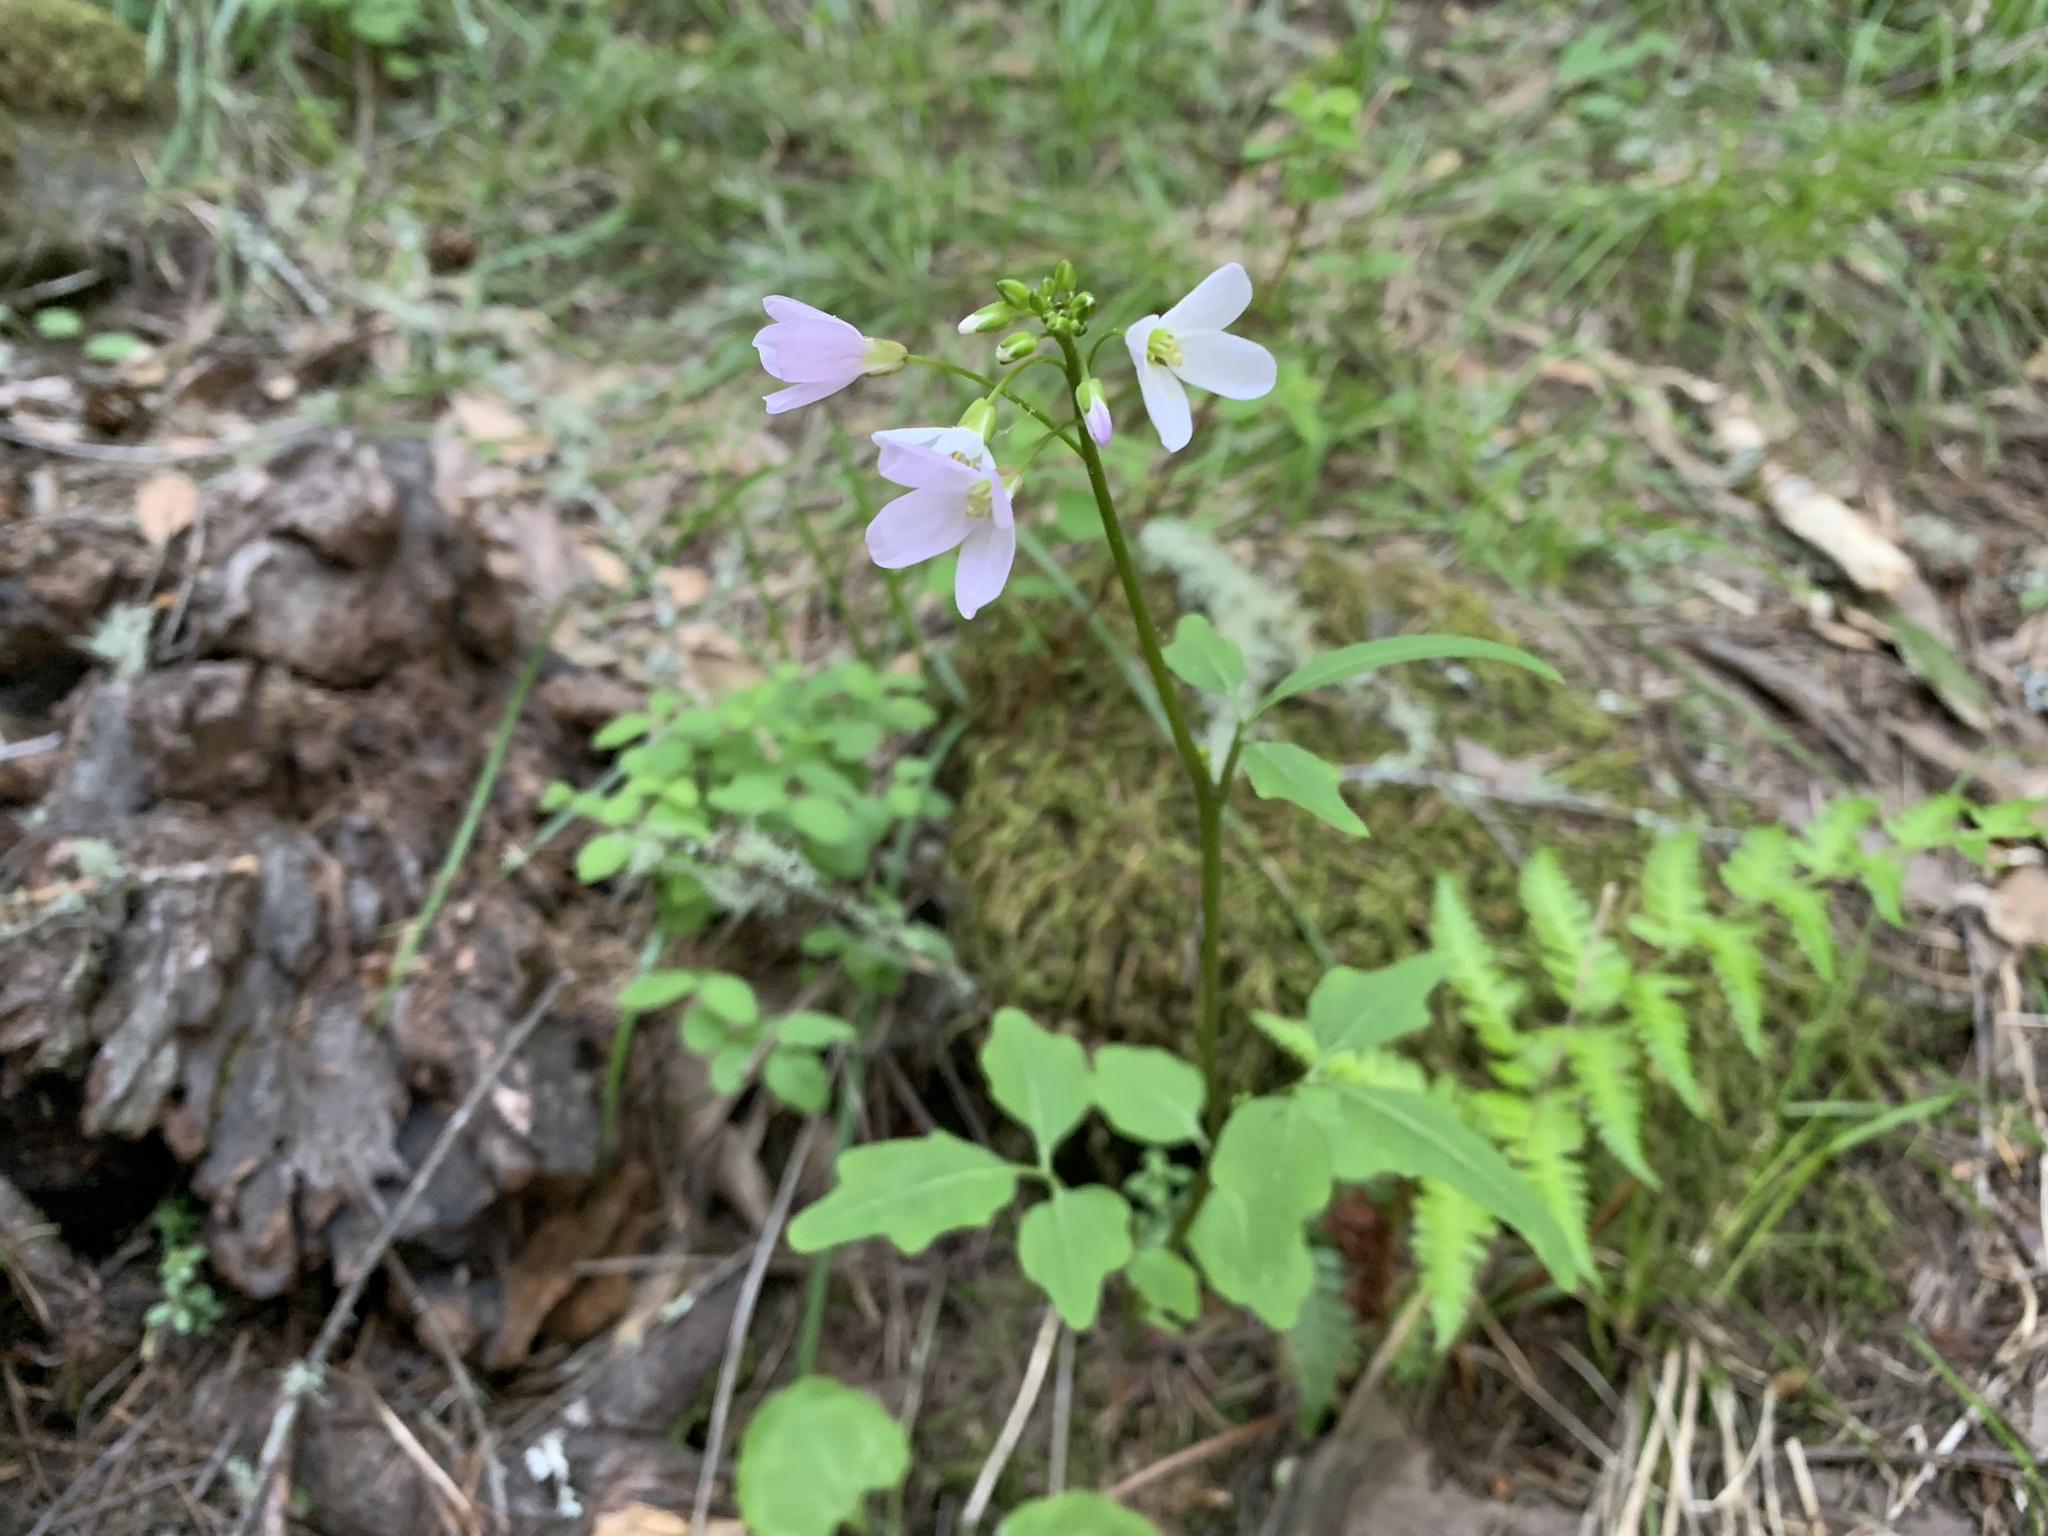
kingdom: Plantae
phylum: Tracheophyta
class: Magnoliopsida
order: Brassicales
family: Brassicaceae
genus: Cardamine
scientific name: Cardamine californica
